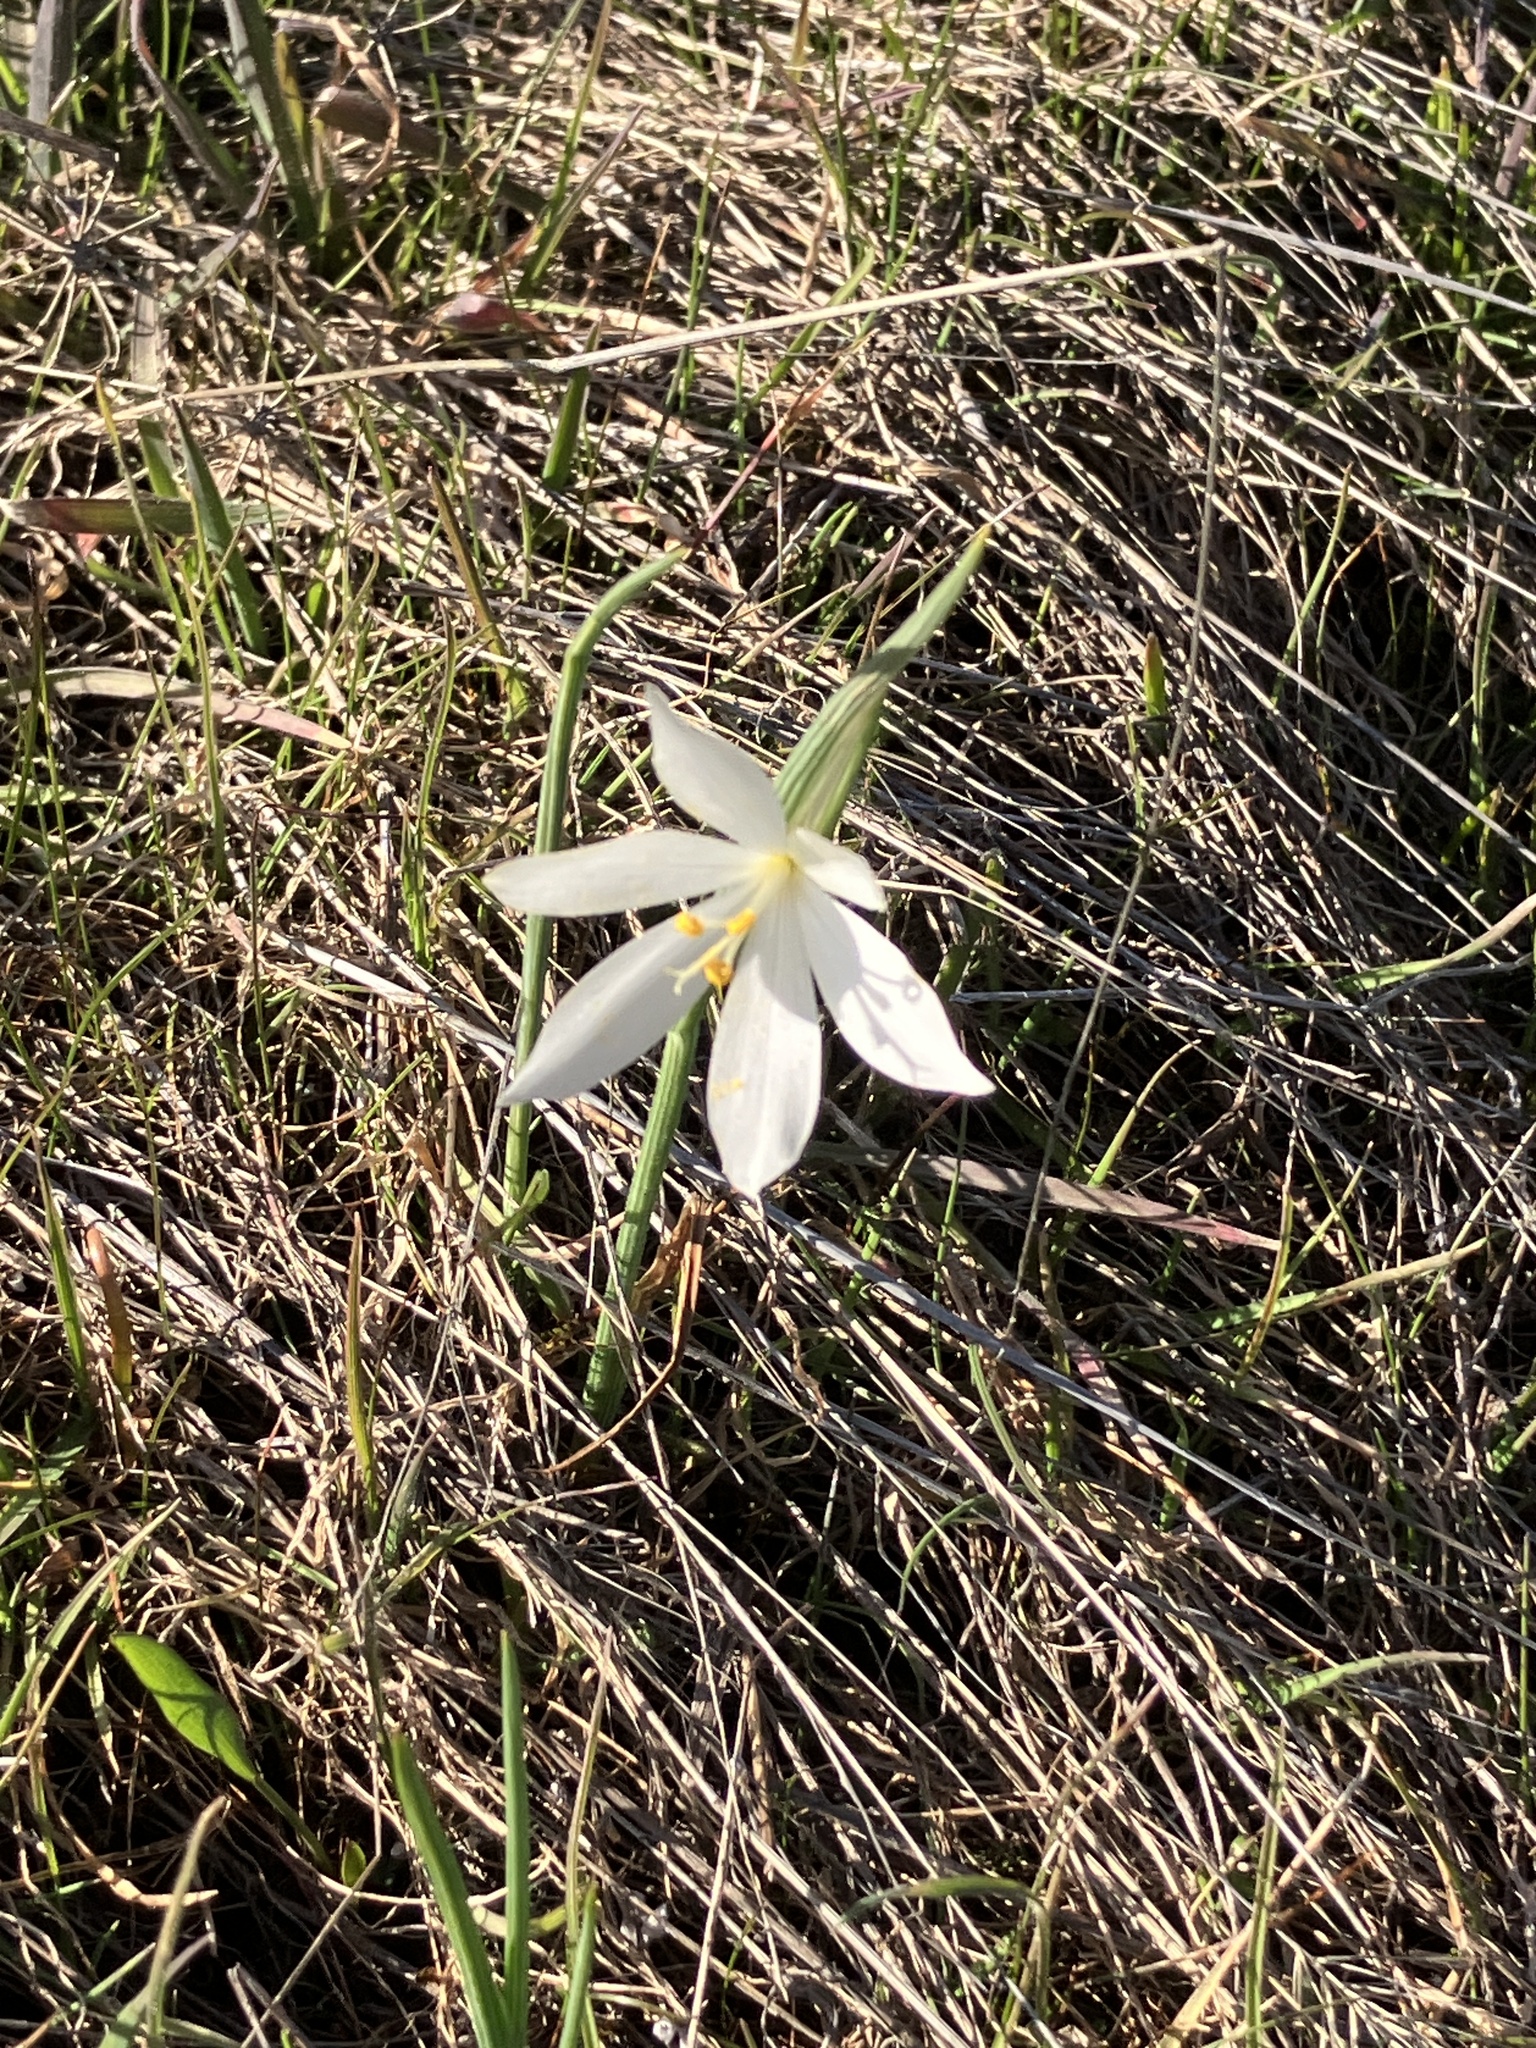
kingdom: Plantae
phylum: Tracheophyta
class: Liliopsida
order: Asparagales
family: Iridaceae
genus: Olsynium
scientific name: Olsynium douglasii
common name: Douglas' grasswidow
